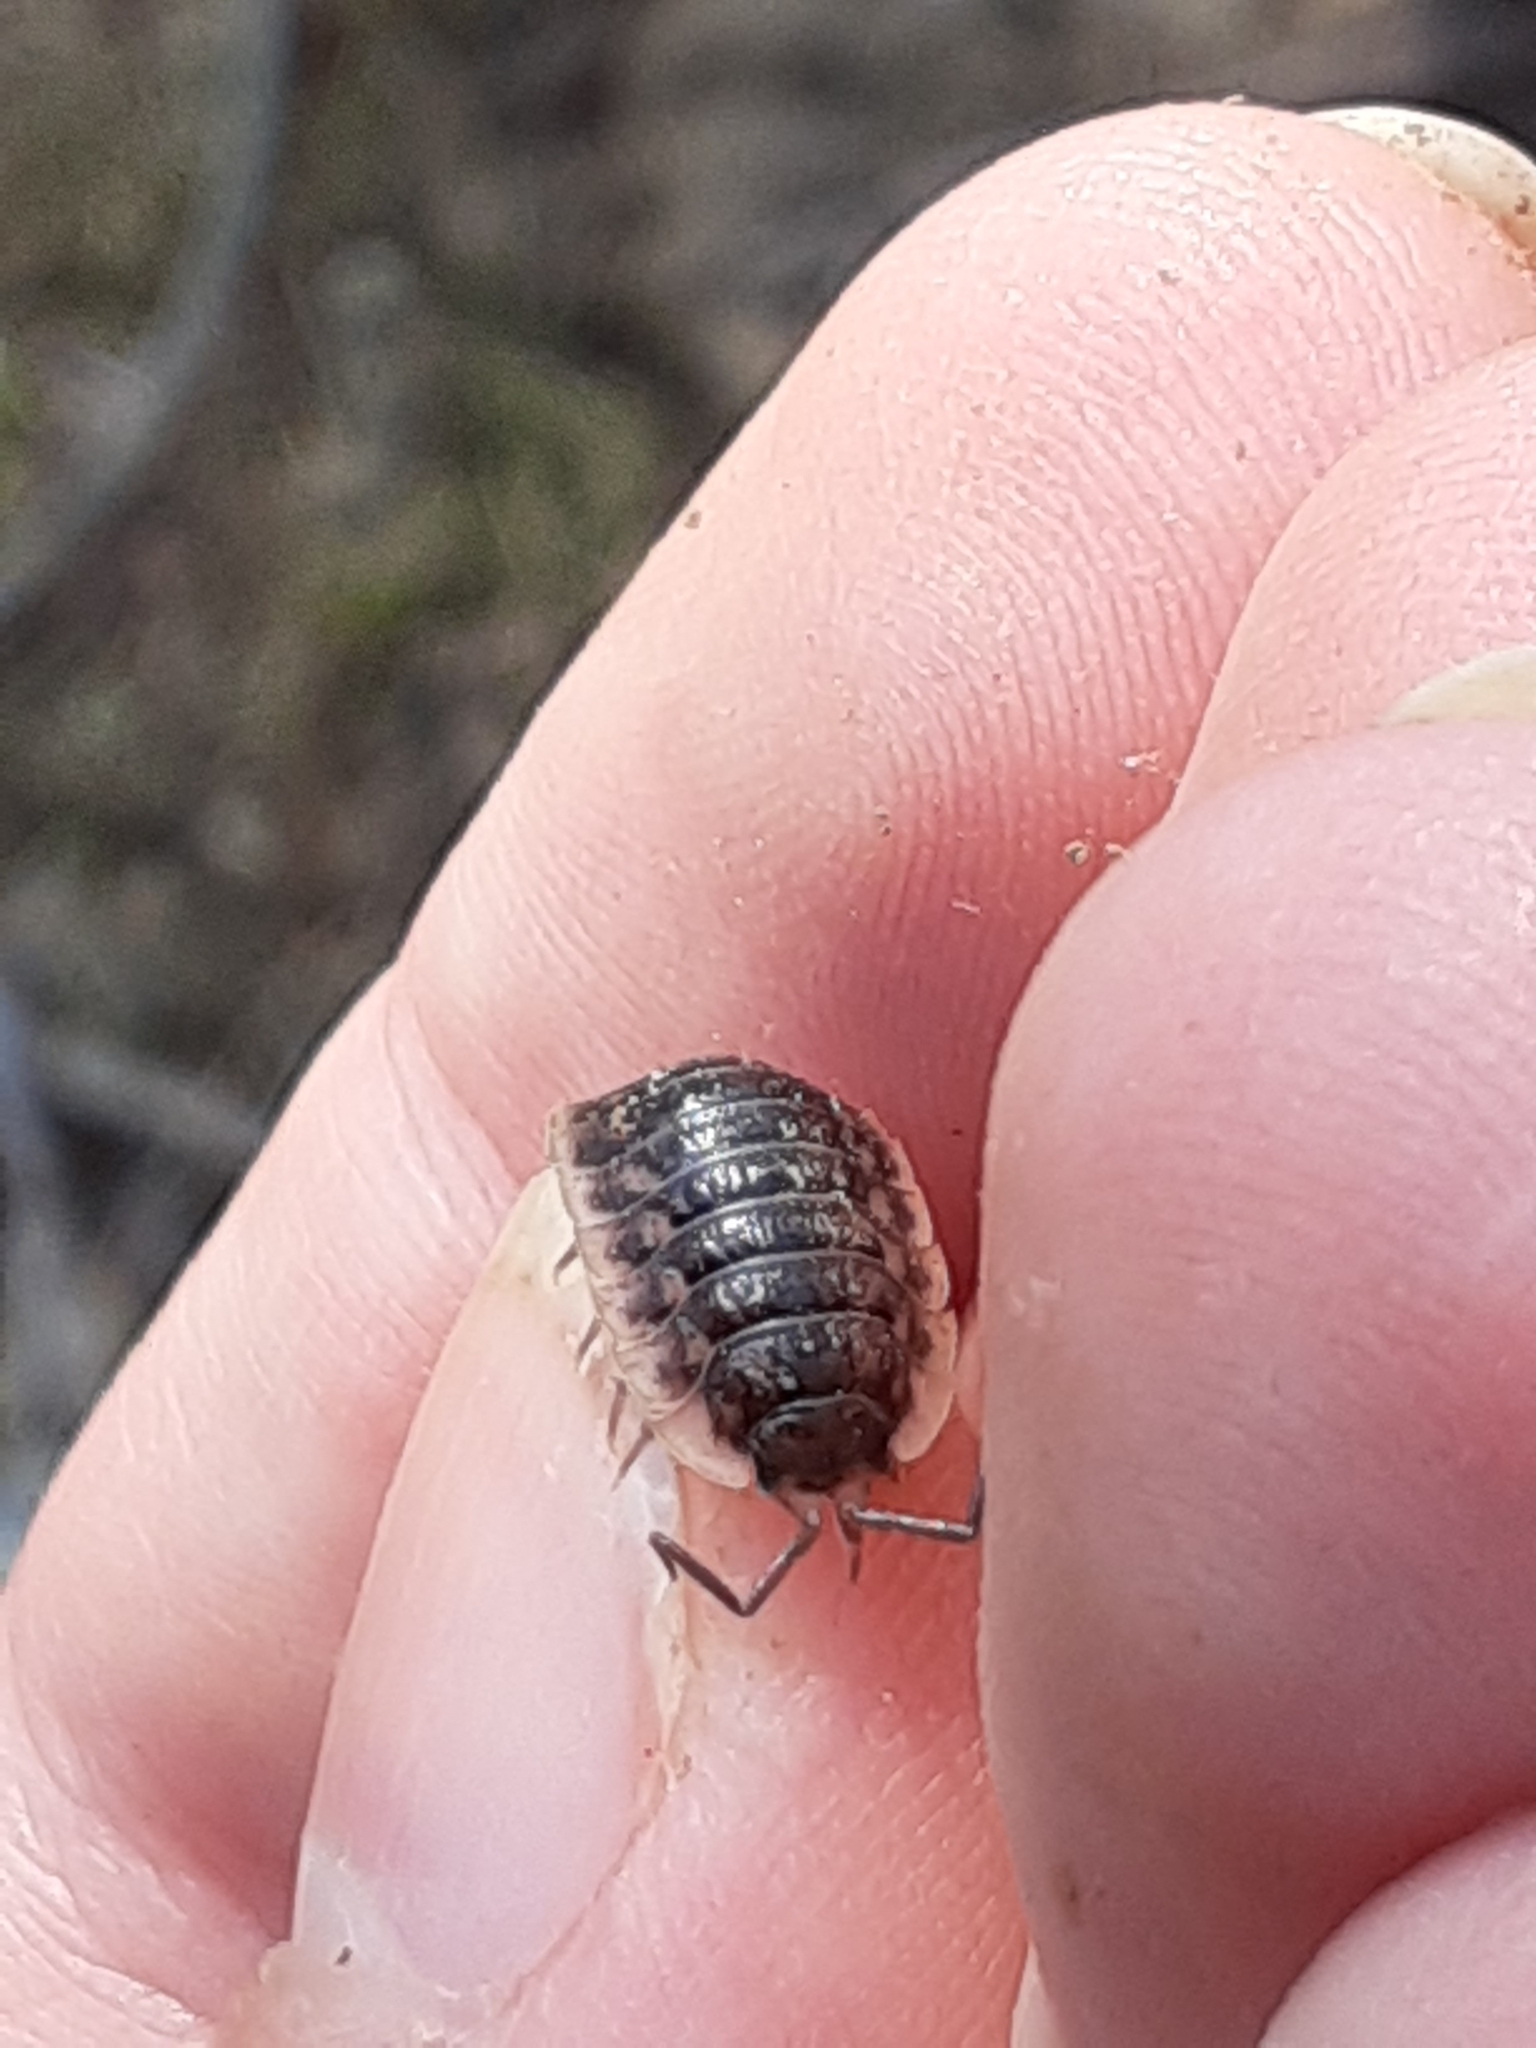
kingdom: Animalia
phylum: Arthropoda
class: Malacostraca
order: Isopoda
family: Oniscidae
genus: Oniscus
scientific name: Oniscus asellus
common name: Common shiny woodlouse
